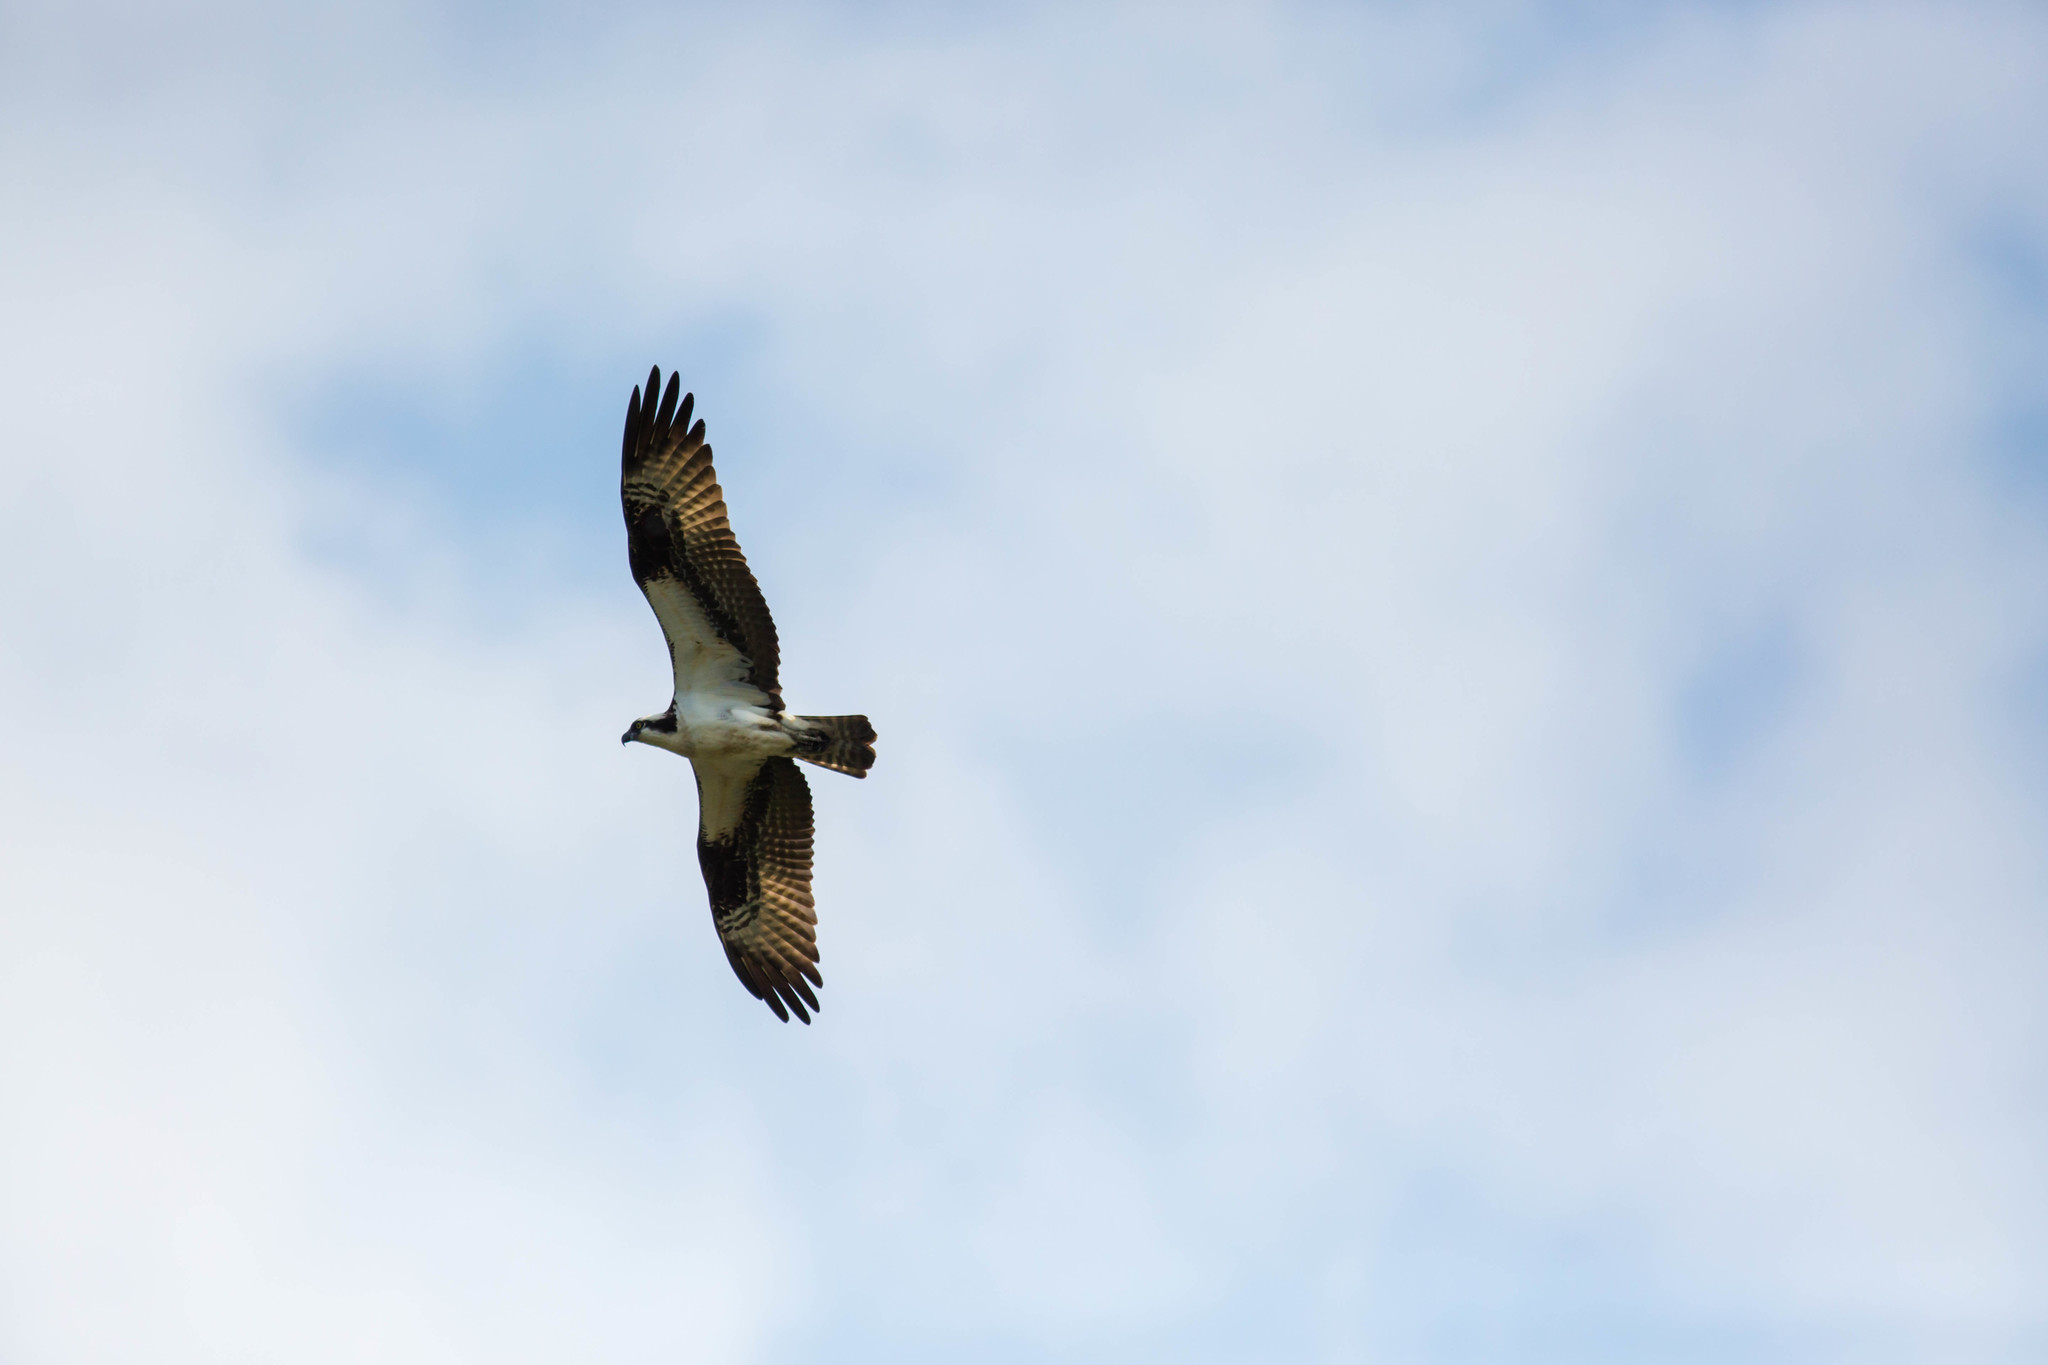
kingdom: Animalia
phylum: Chordata
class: Aves
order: Accipitriformes
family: Pandionidae
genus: Pandion
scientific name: Pandion haliaetus
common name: Osprey
